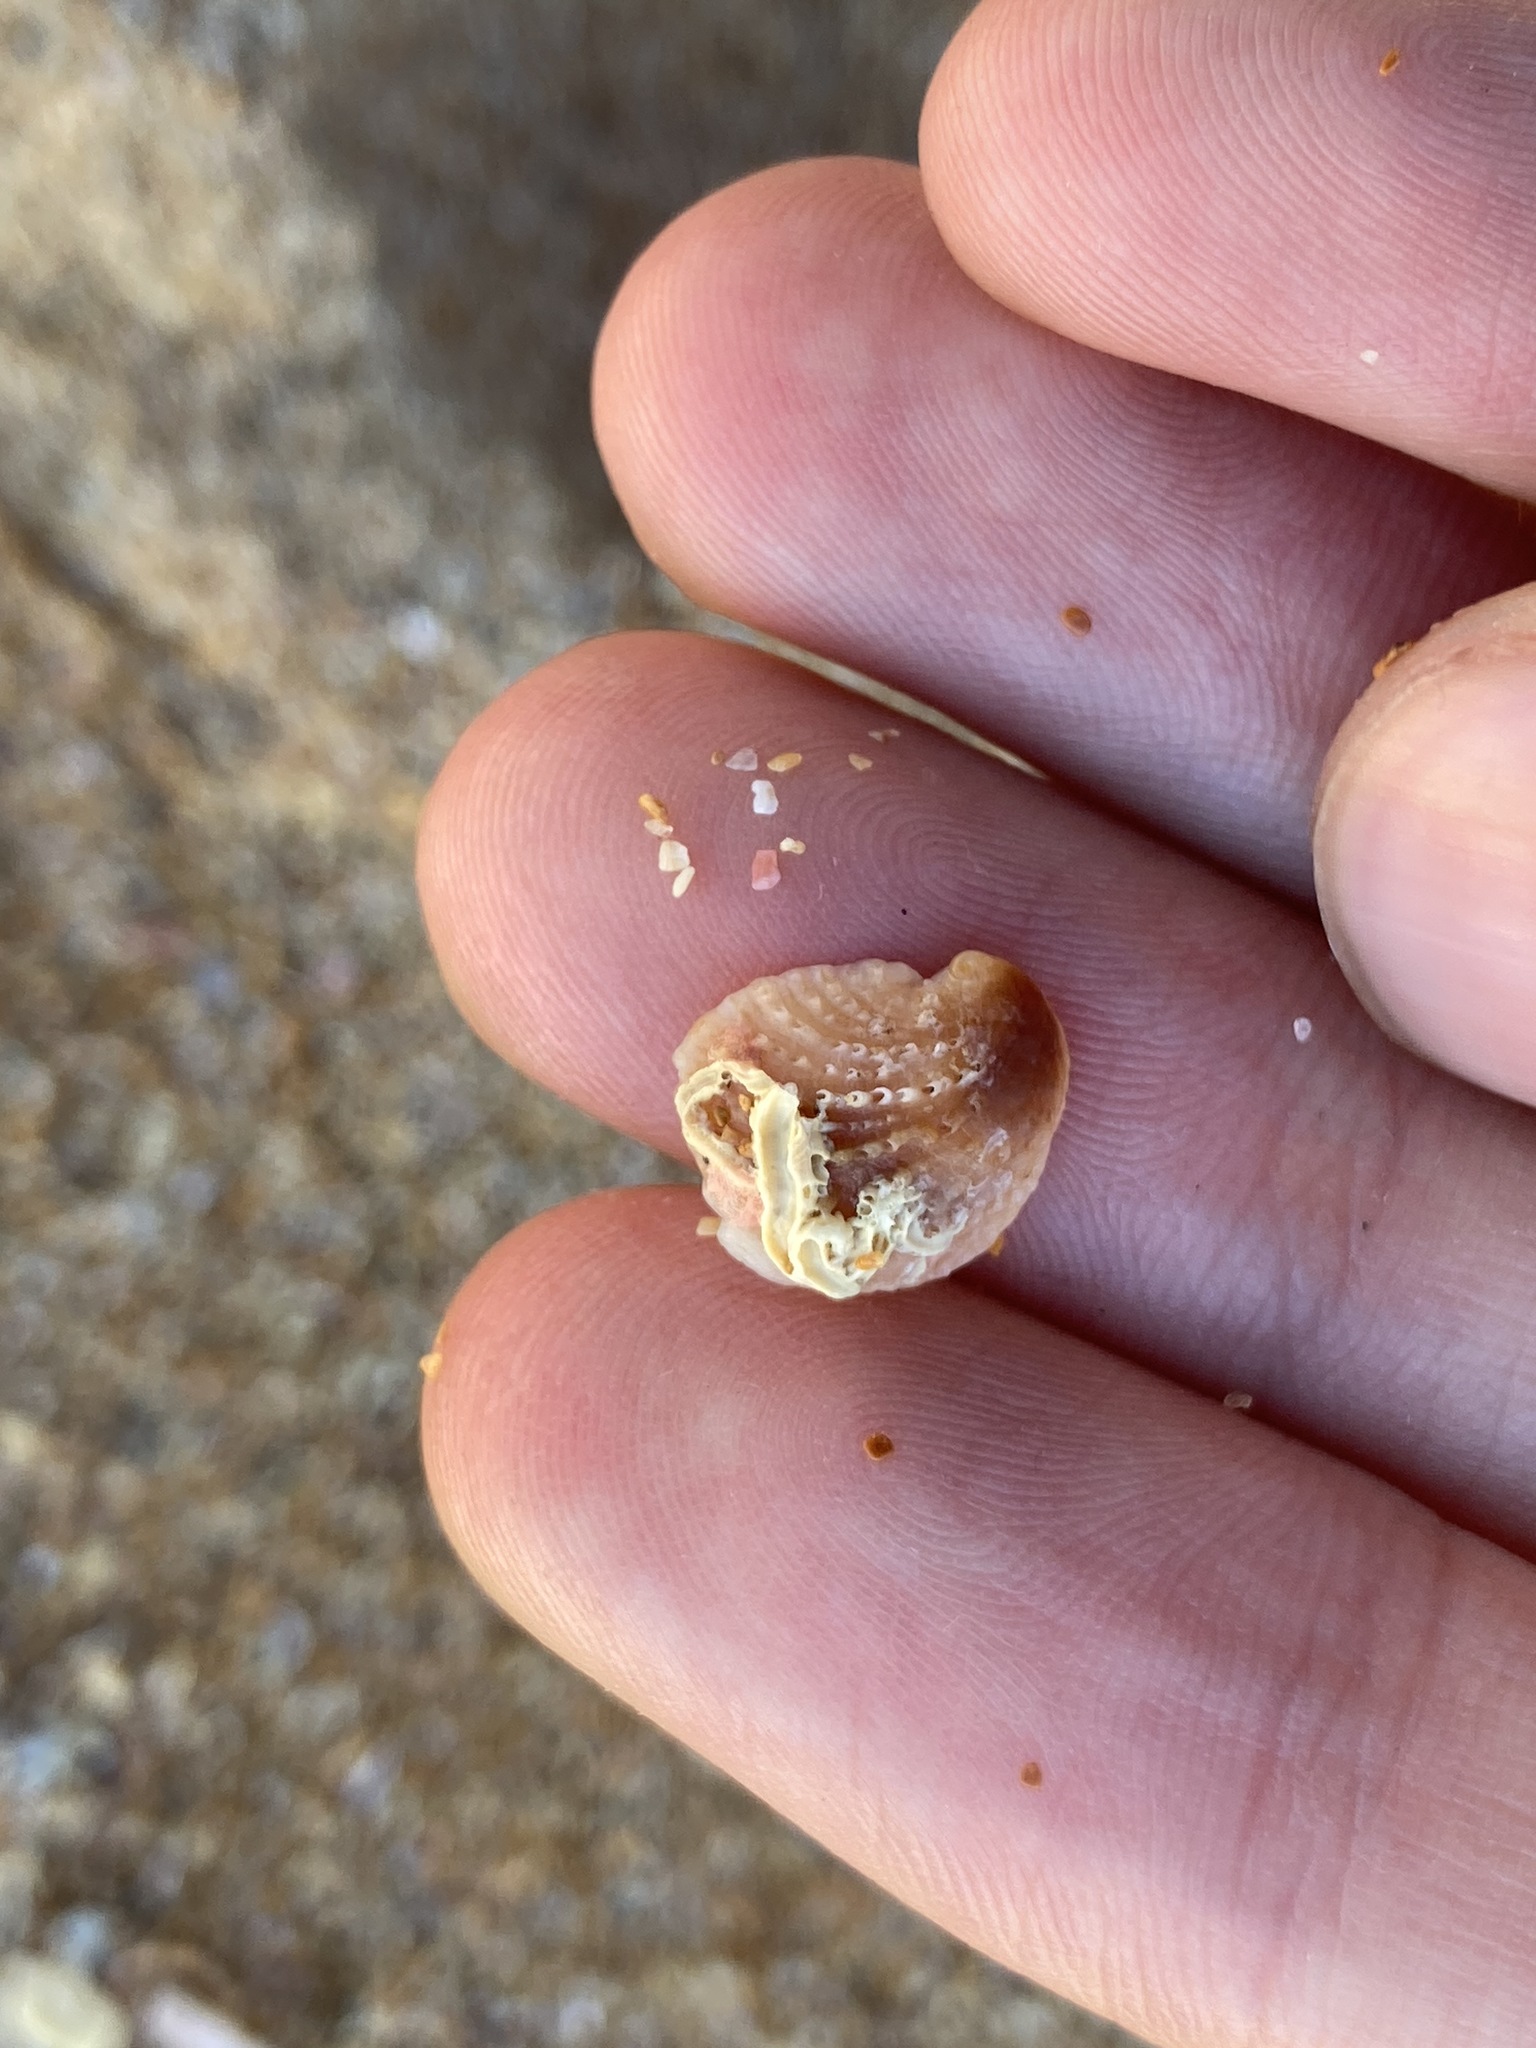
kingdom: Animalia
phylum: Mollusca
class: Gastropoda
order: Littorinimorpha
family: Calyptraeidae
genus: Bostrycapulus
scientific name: Bostrycapulus pritzkeri
